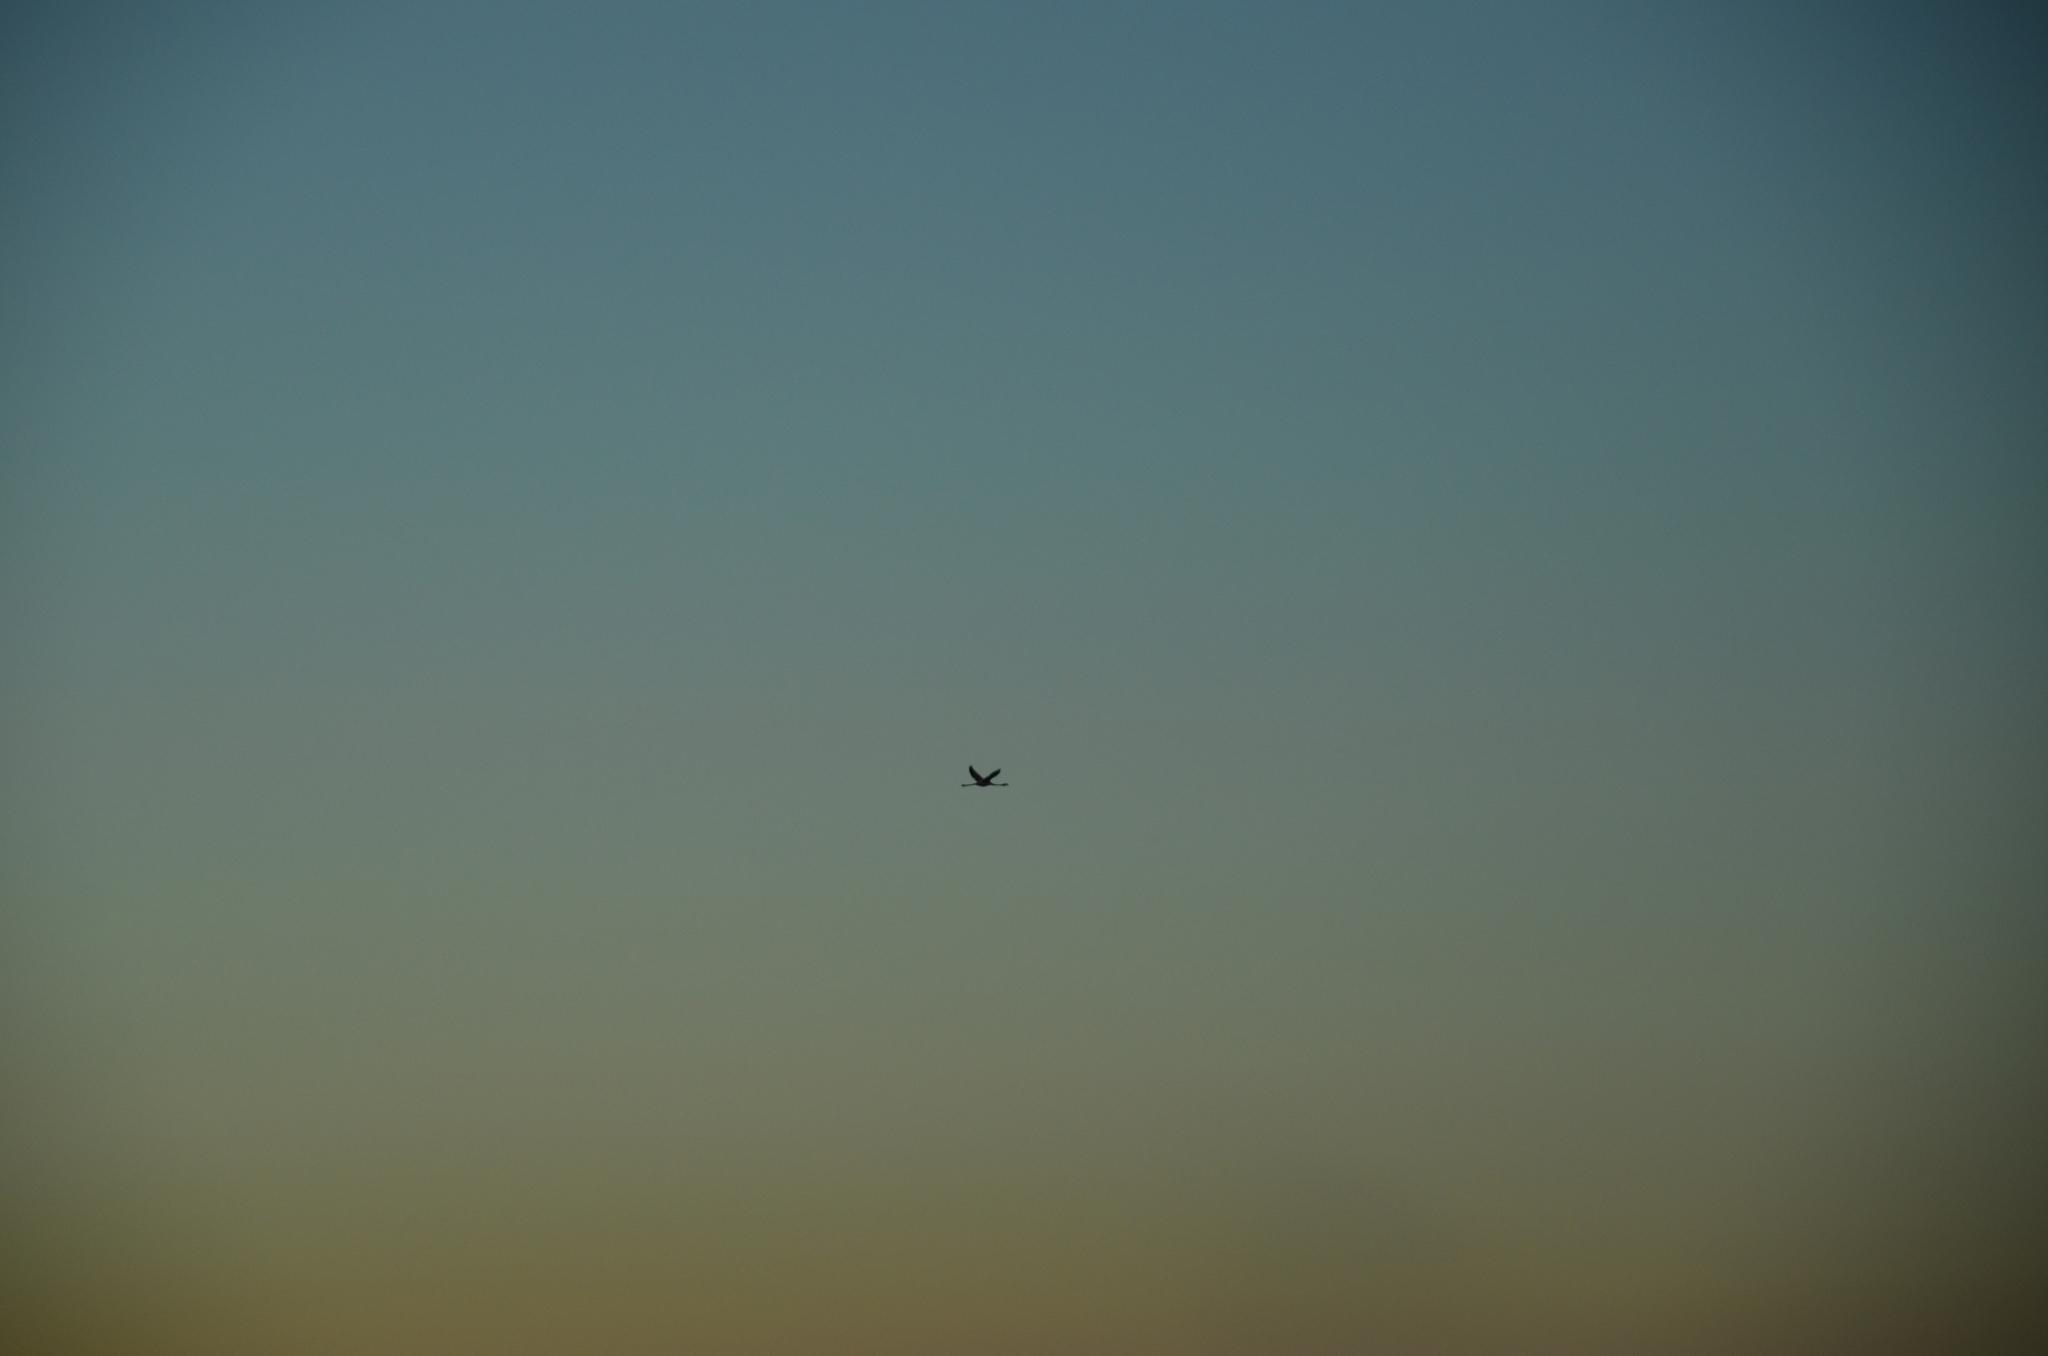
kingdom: Animalia
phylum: Chordata
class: Aves
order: Phoenicopteriformes
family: Phoenicopteridae
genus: Phoenicopterus
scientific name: Phoenicopterus chilensis
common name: Chilean flamingo
